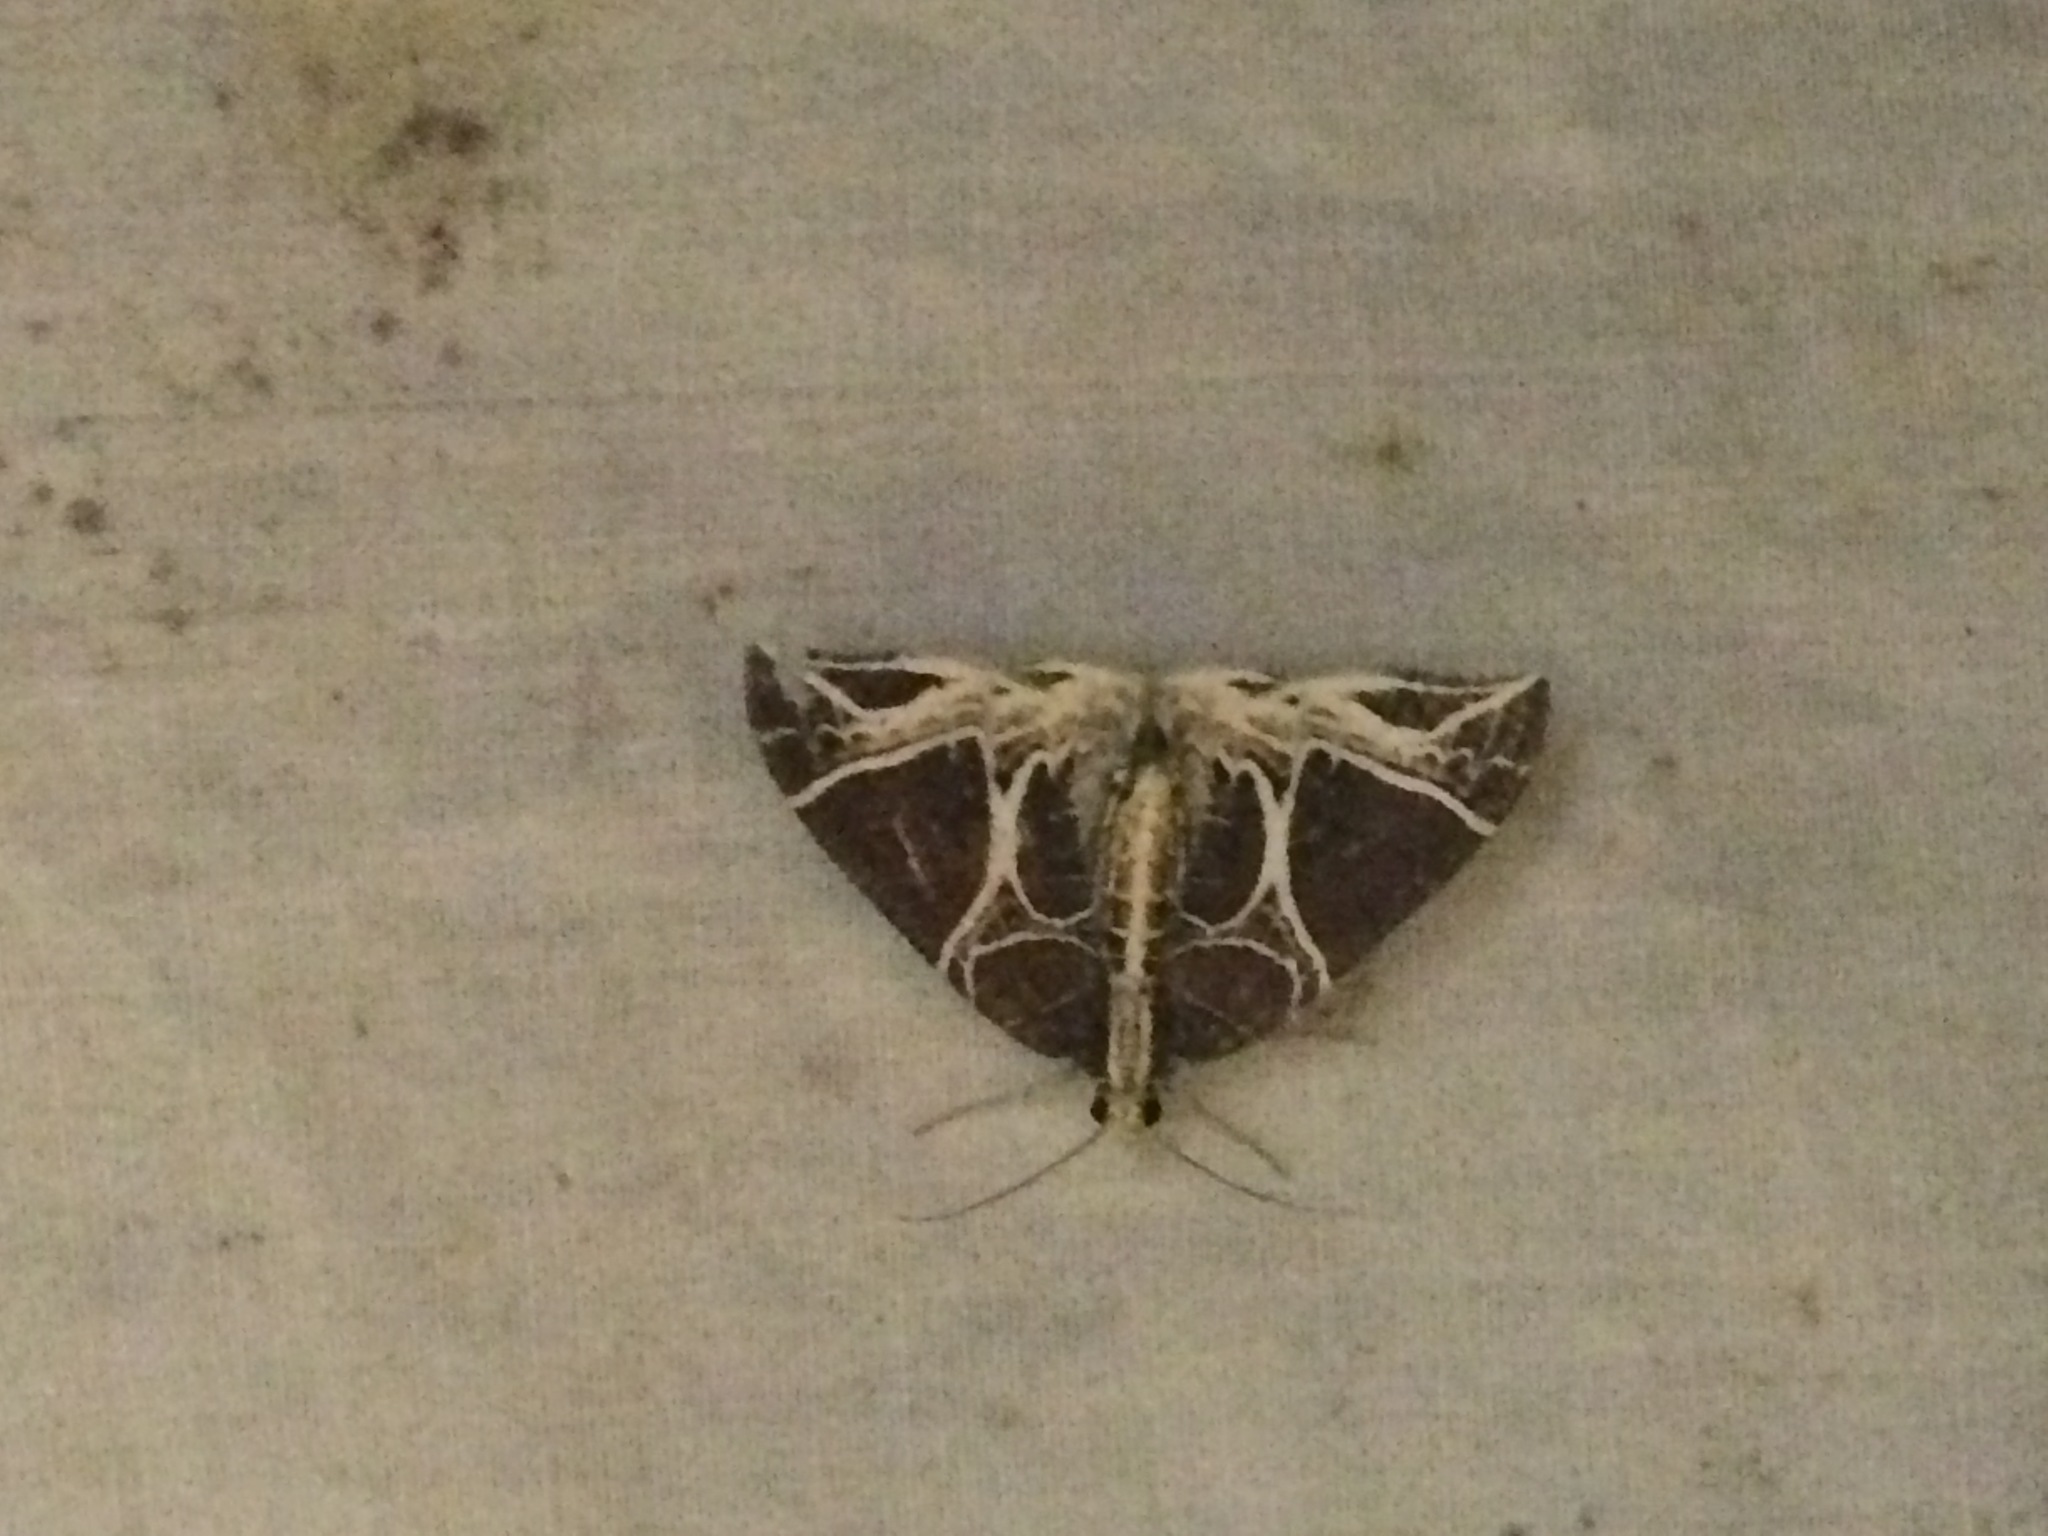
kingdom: Animalia
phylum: Arthropoda
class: Insecta
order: Lepidoptera
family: Geometridae
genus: Ecliptopera
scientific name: Ecliptopera benigna
